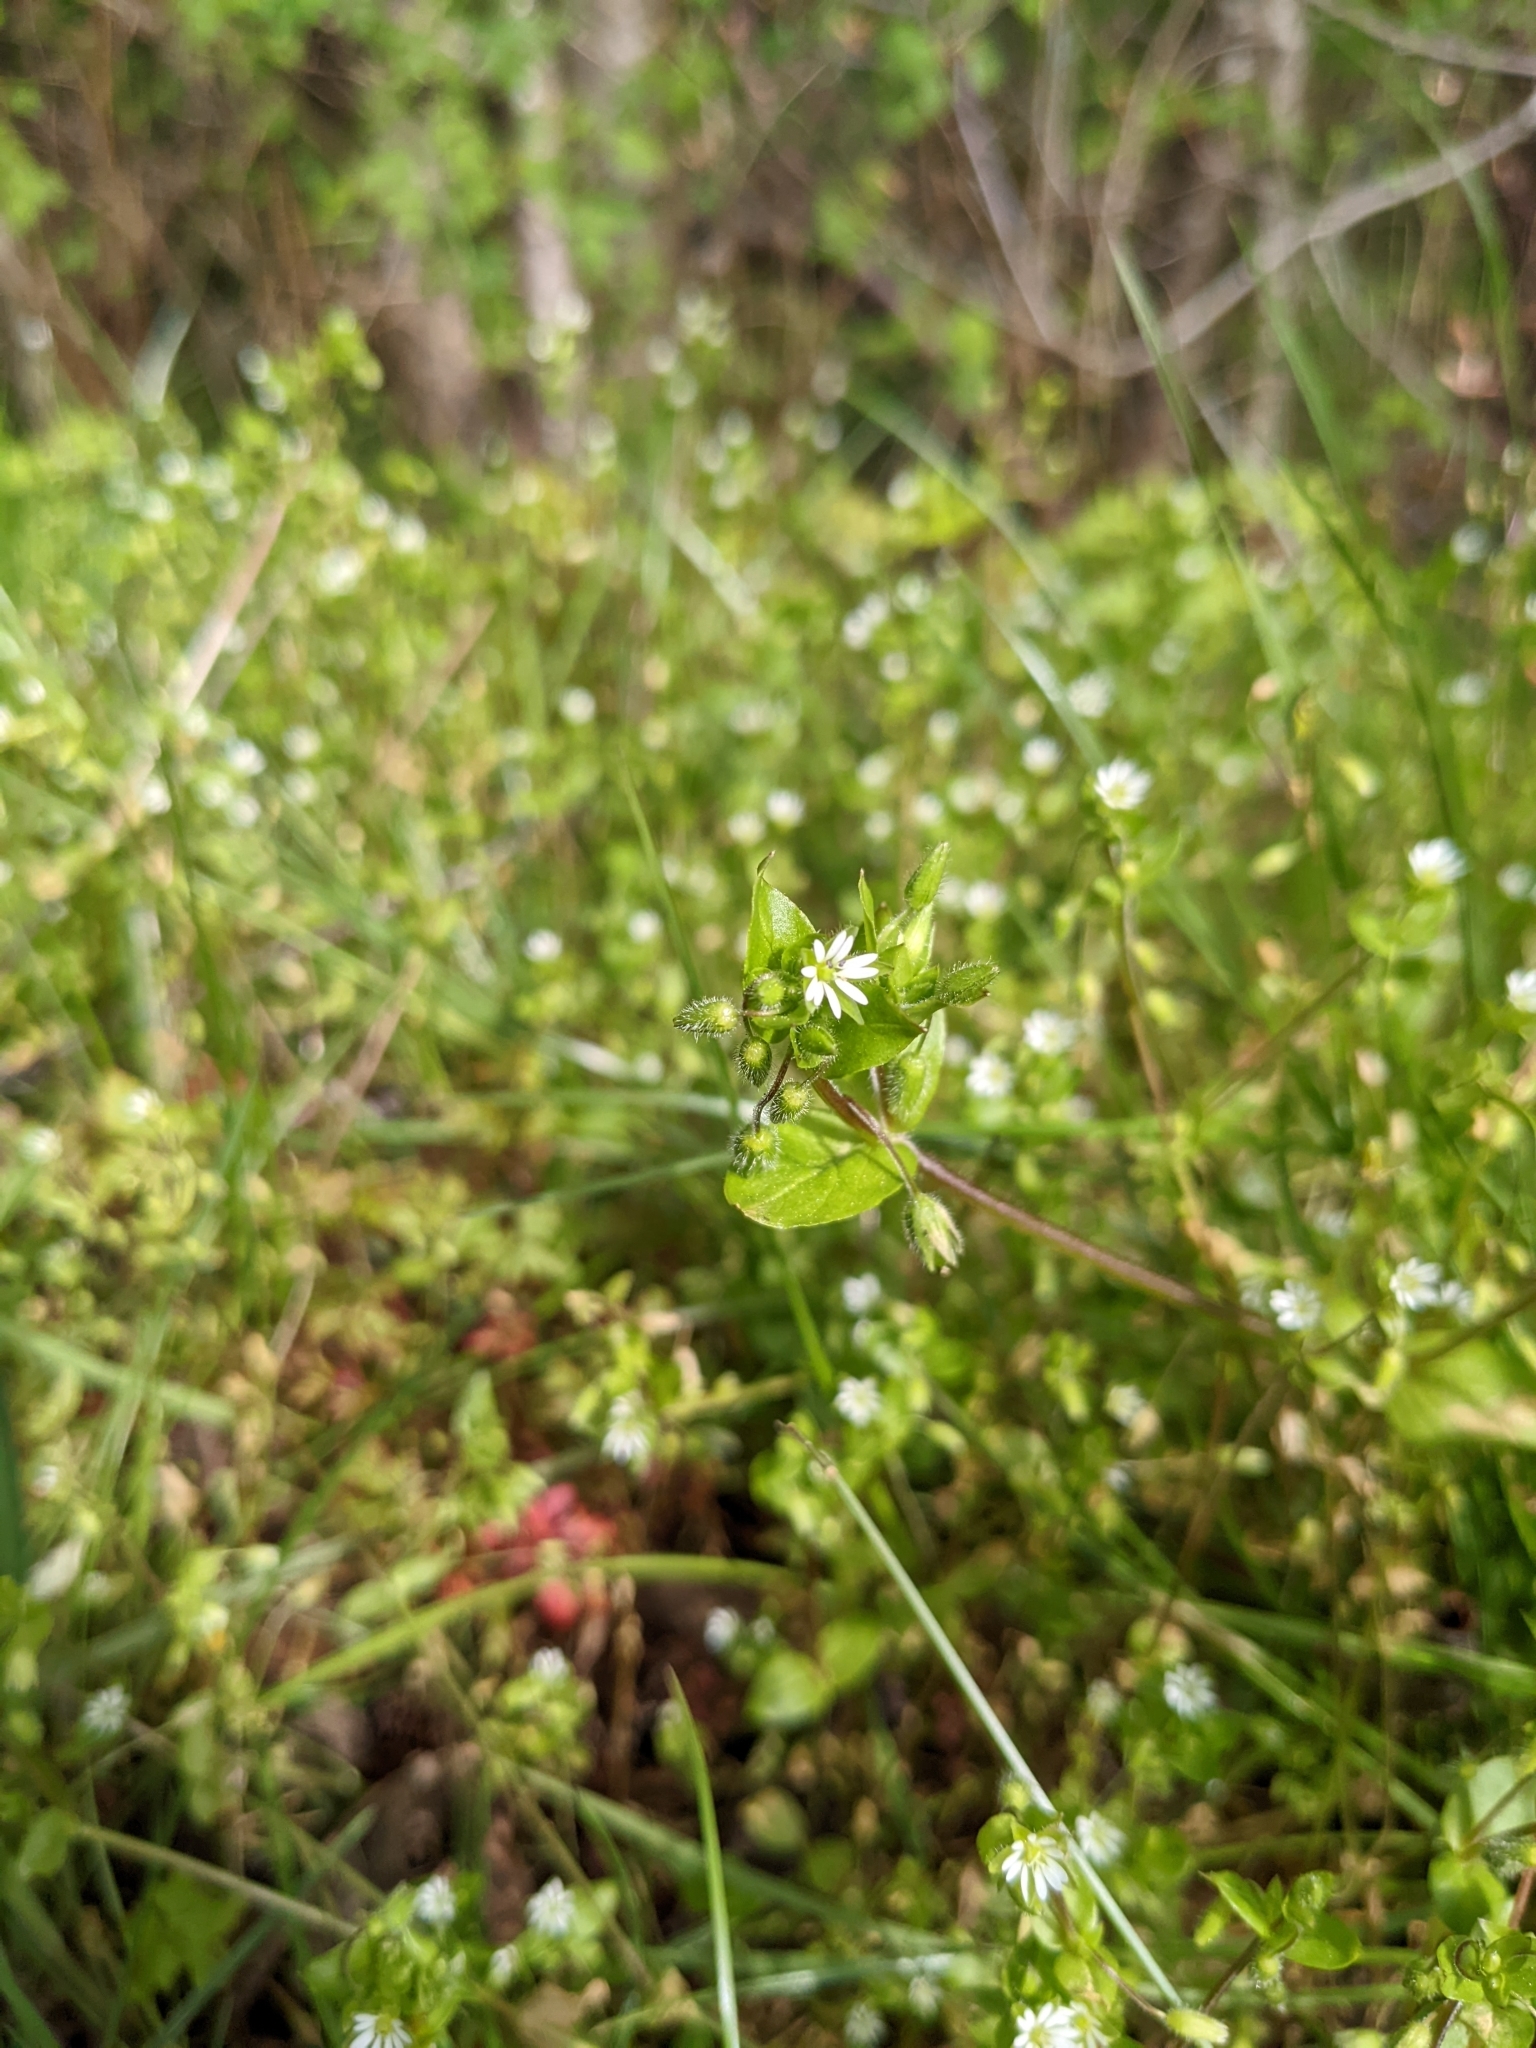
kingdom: Plantae
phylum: Tracheophyta
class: Magnoliopsida
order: Caryophyllales
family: Caryophyllaceae
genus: Stellaria
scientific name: Stellaria media
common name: Common chickweed
